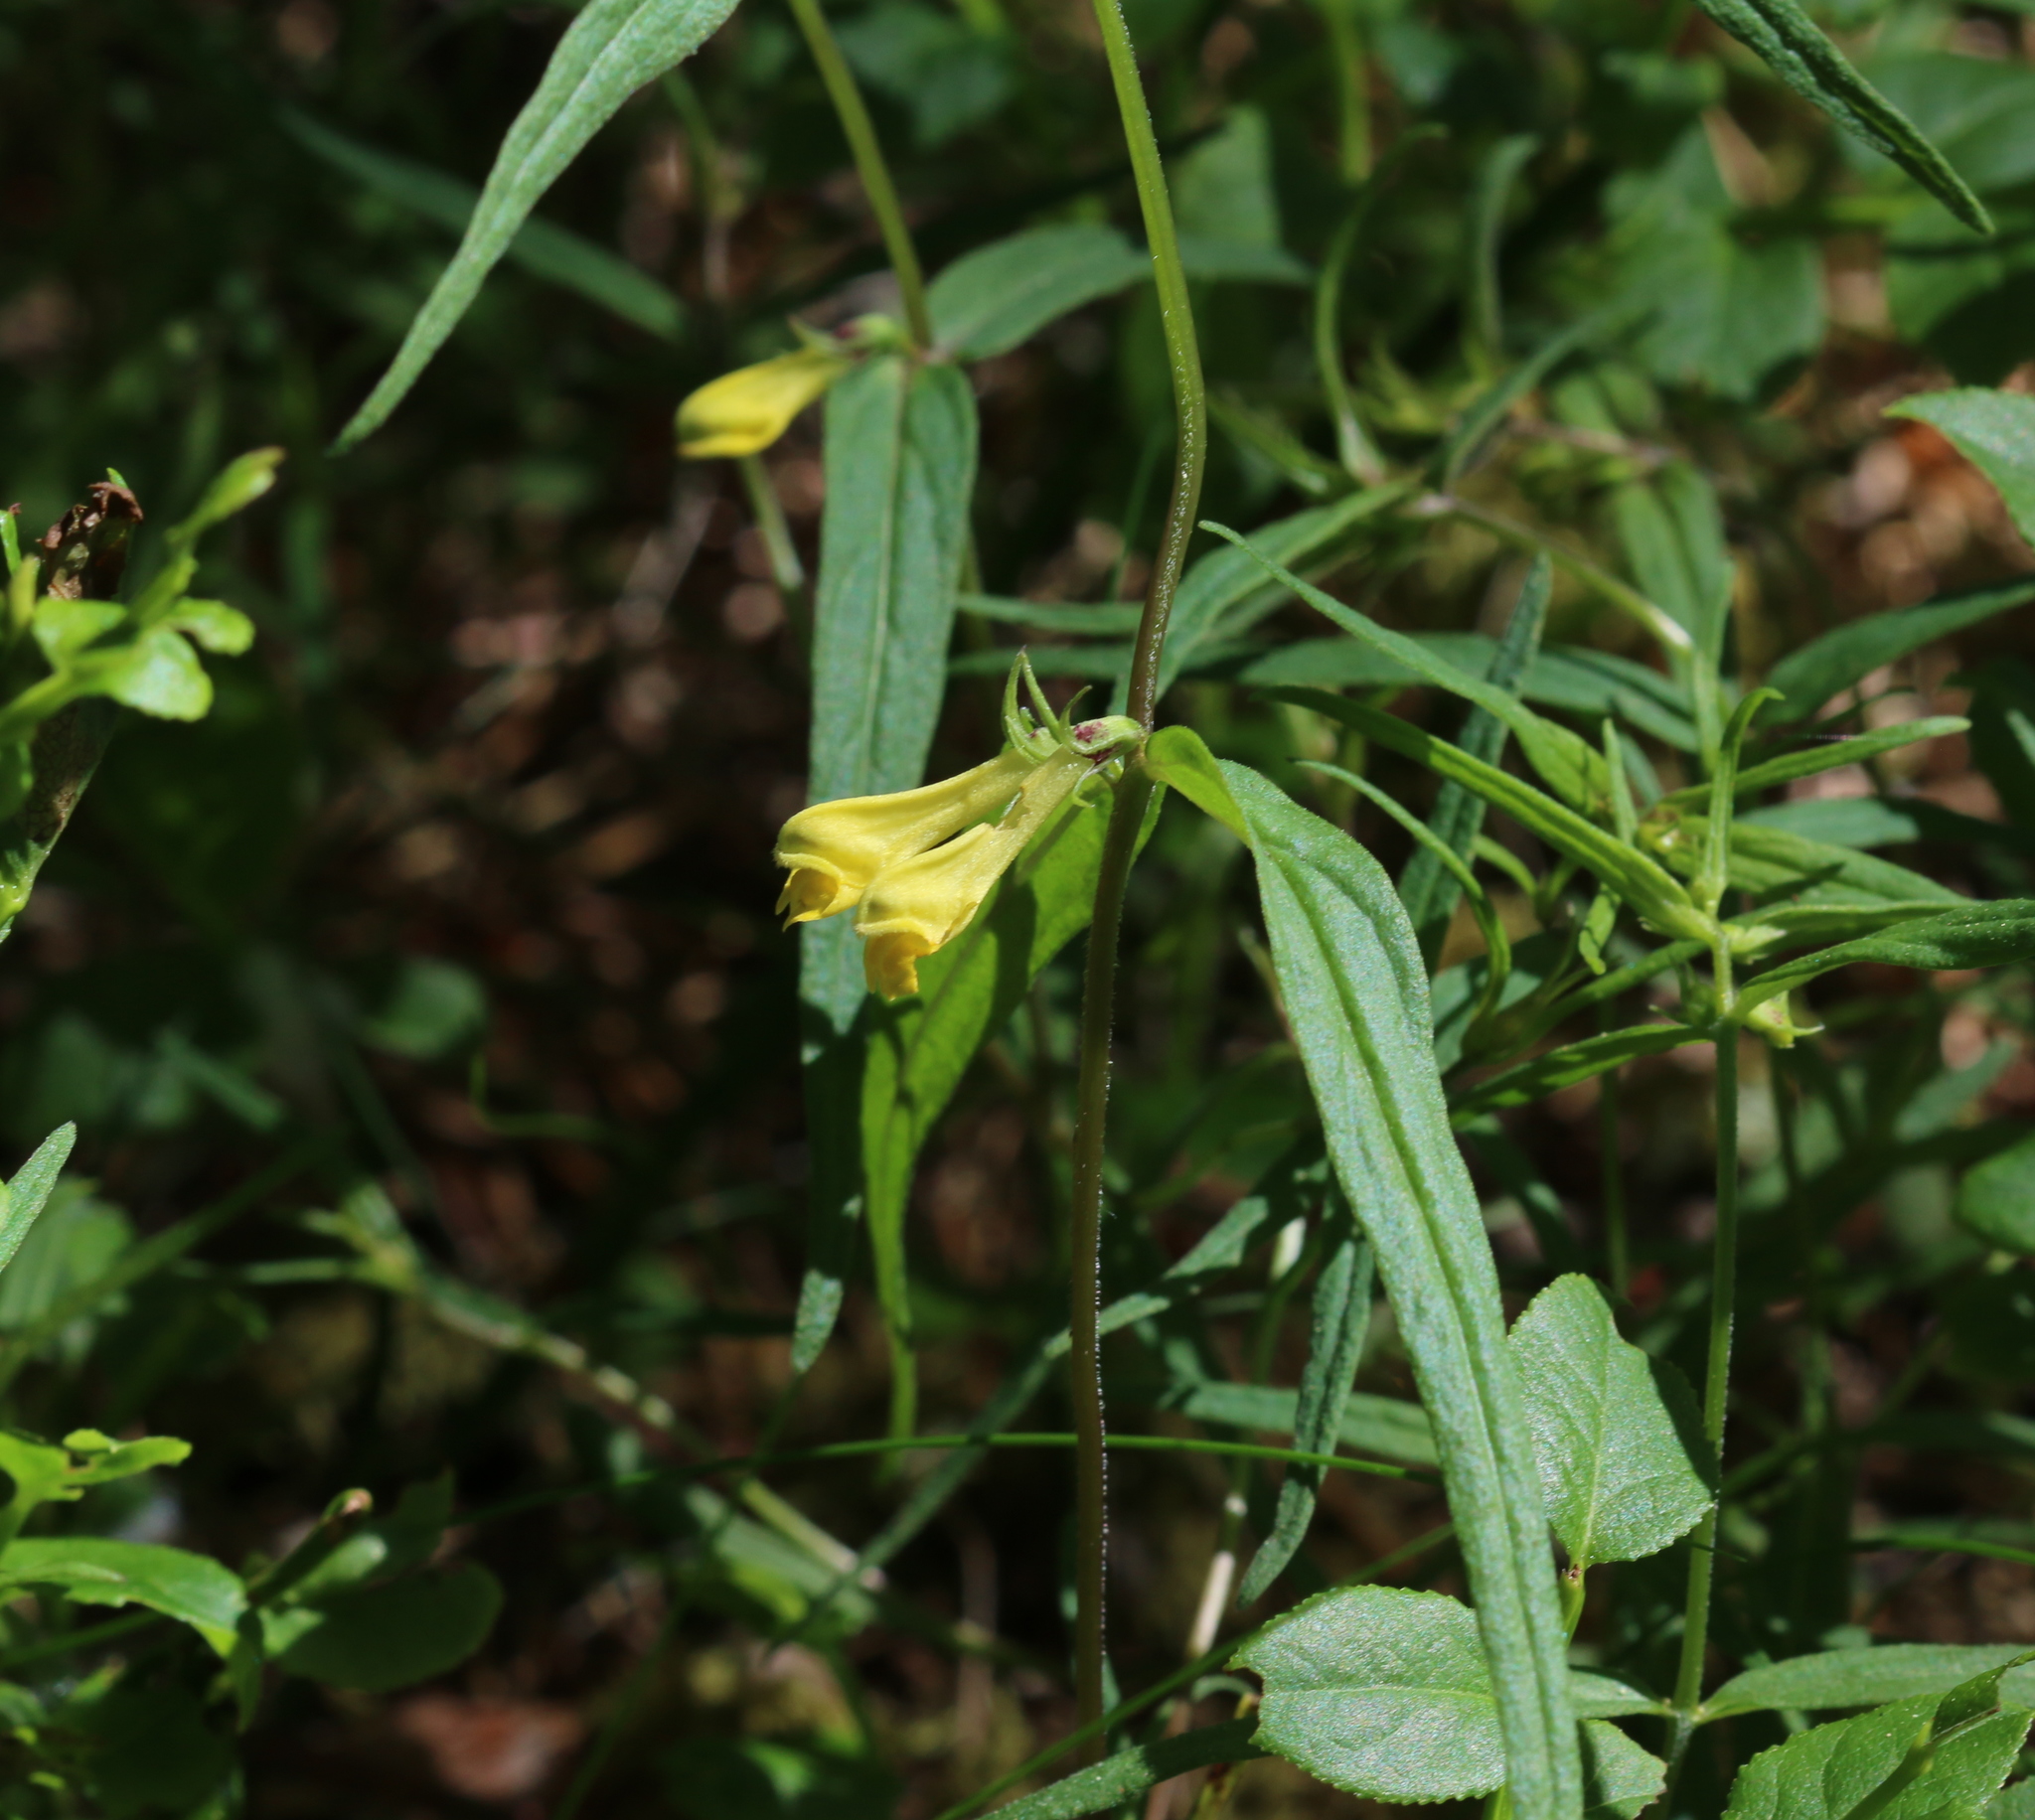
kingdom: Plantae
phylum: Tracheophyta
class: Magnoliopsida
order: Lamiales
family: Orobanchaceae
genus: Melampyrum
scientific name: Melampyrum pratense
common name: Common cow-wheat
